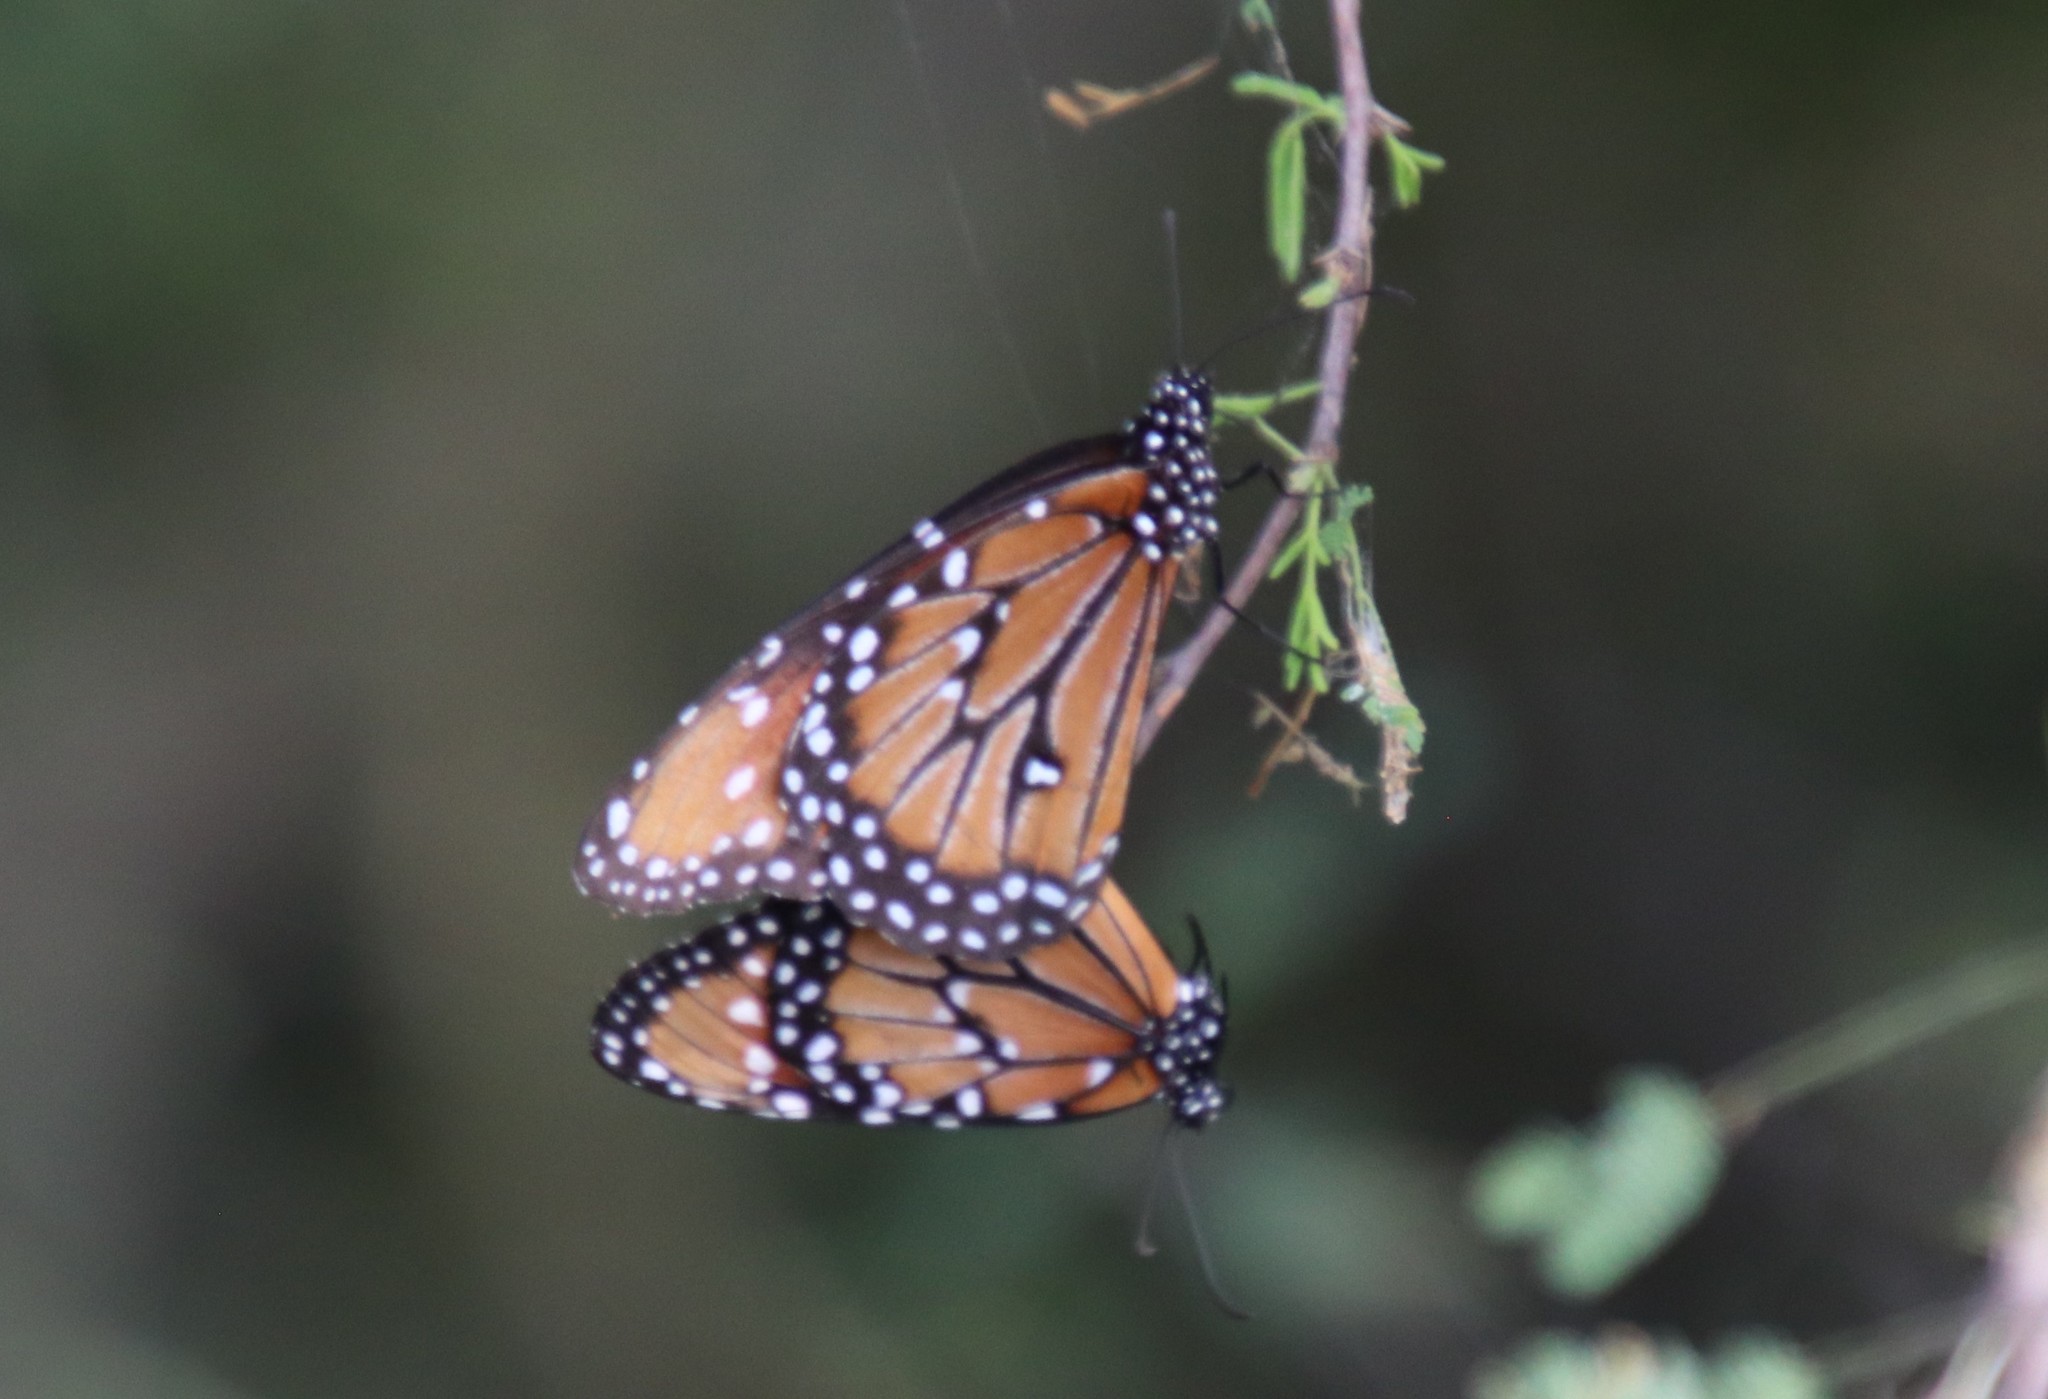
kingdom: Animalia
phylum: Arthropoda
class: Insecta
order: Lepidoptera
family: Nymphalidae
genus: Danaus
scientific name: Danaus gilippus
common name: Queen
